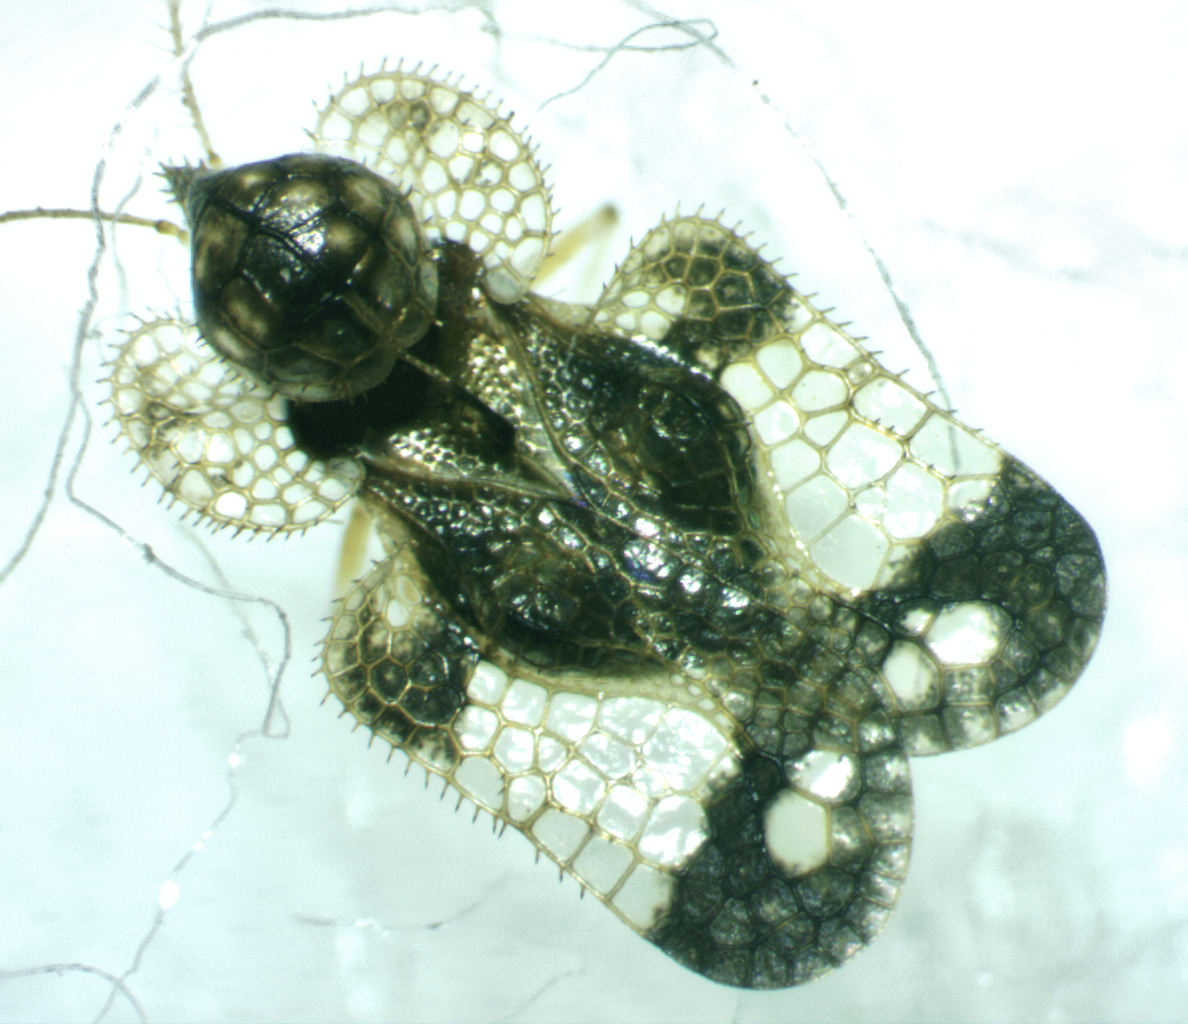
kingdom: Animalia
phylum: Arthropoda
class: Insecta
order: Hemiptera
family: Tingidae
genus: Corythucha
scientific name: Corythucha associata
